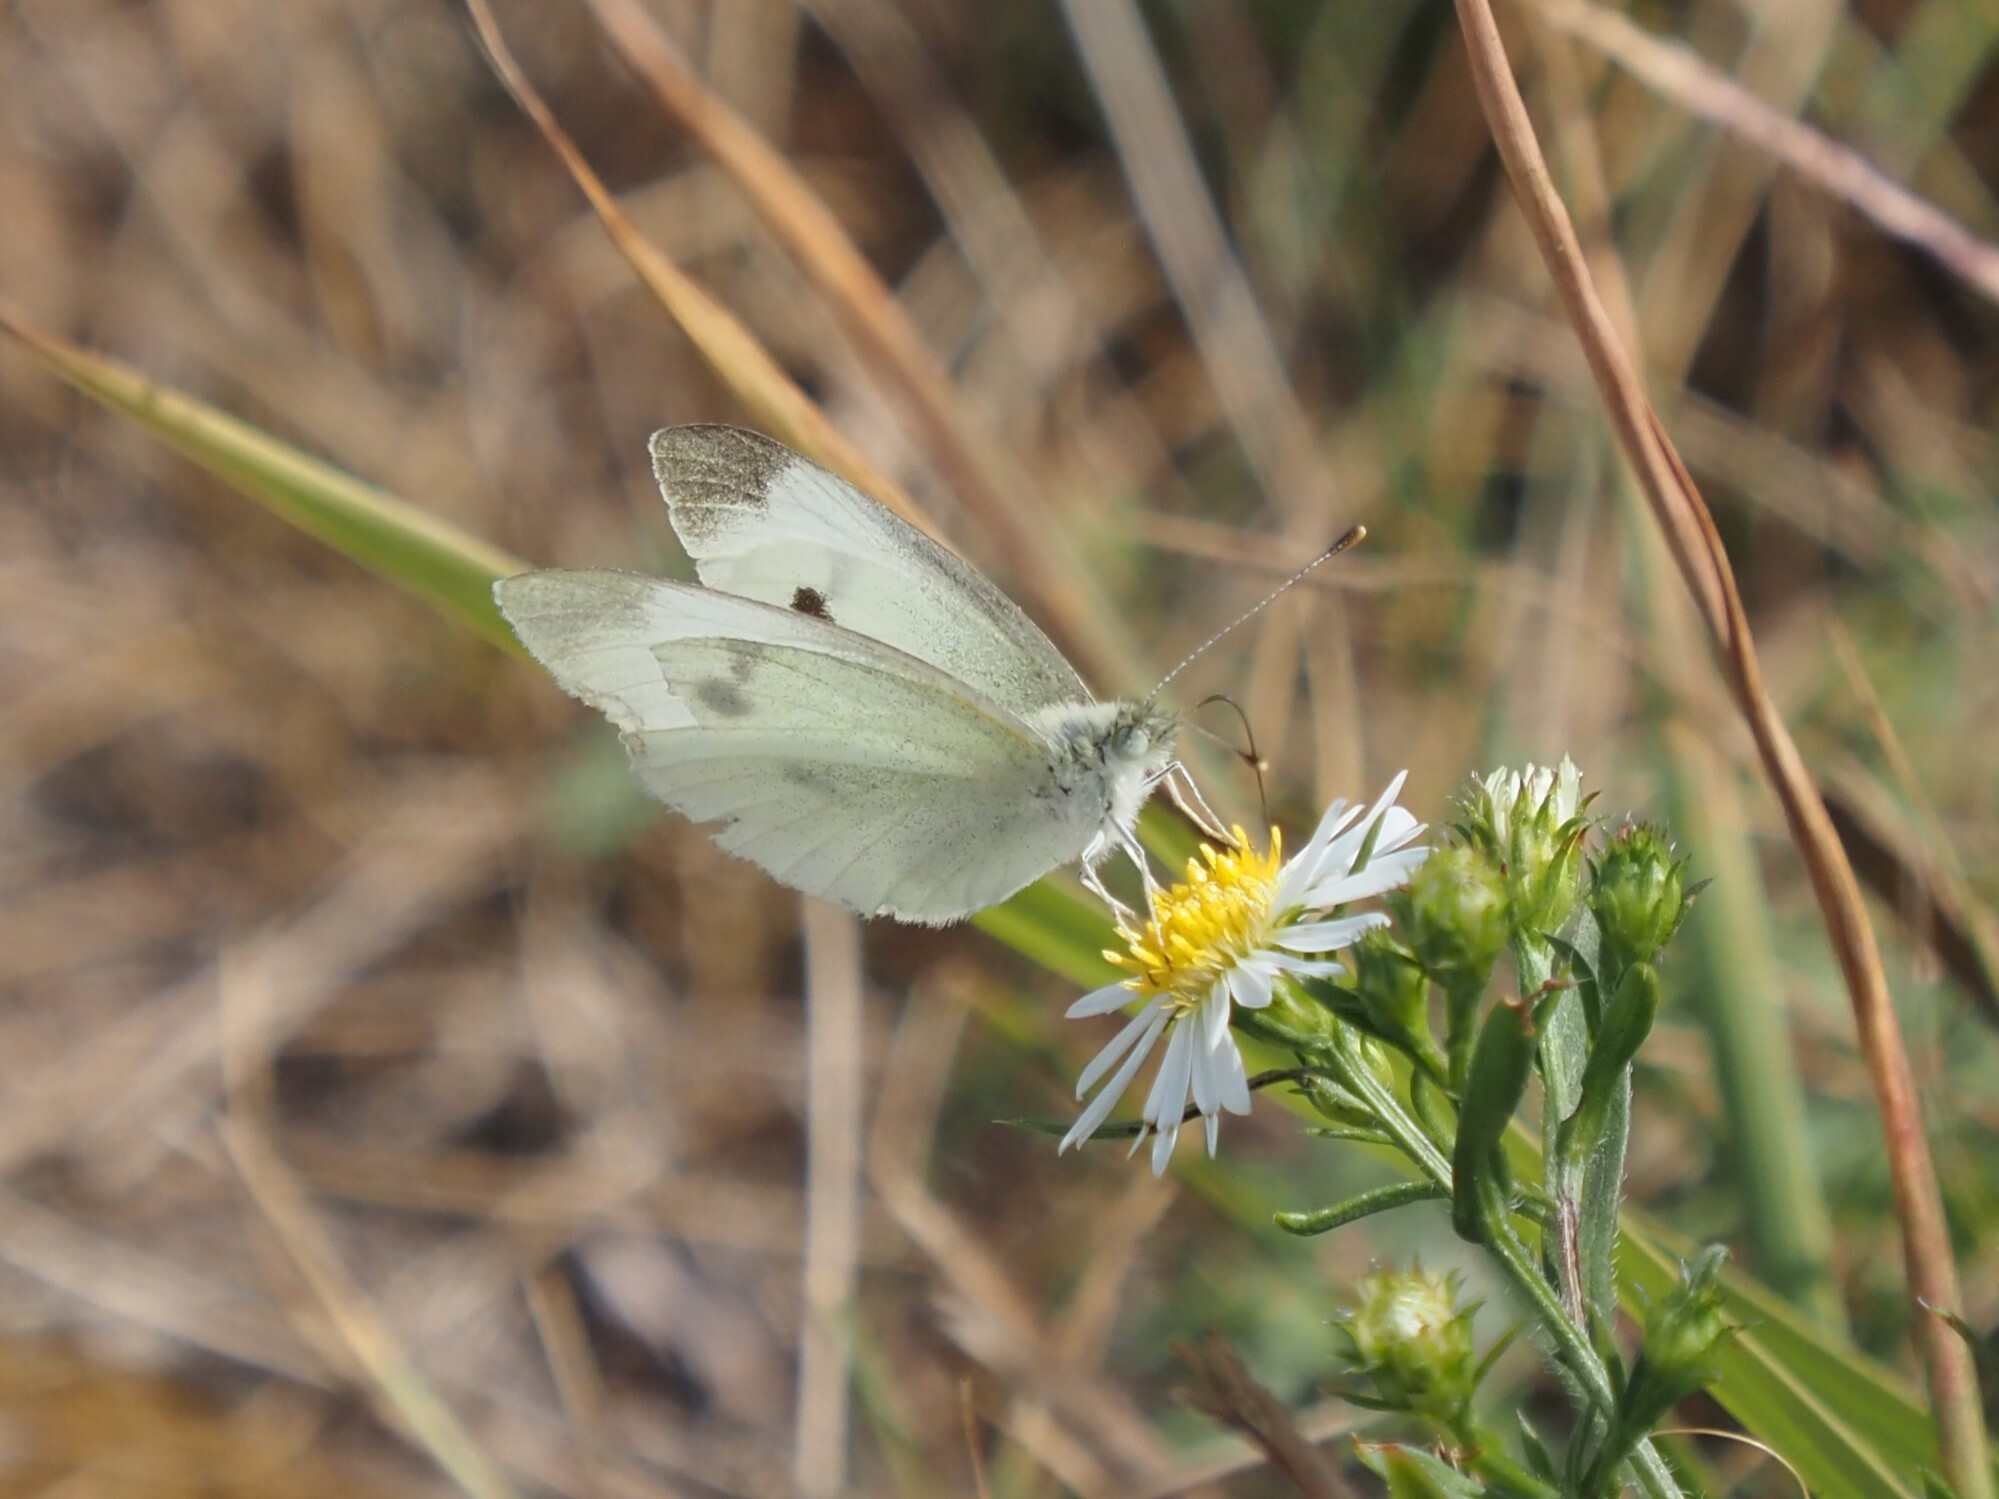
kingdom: Animalia
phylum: Arthropoda
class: Insecta
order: Lepidoptera
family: Pieridae
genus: Pieris
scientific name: Pieris rapae
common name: Small white
